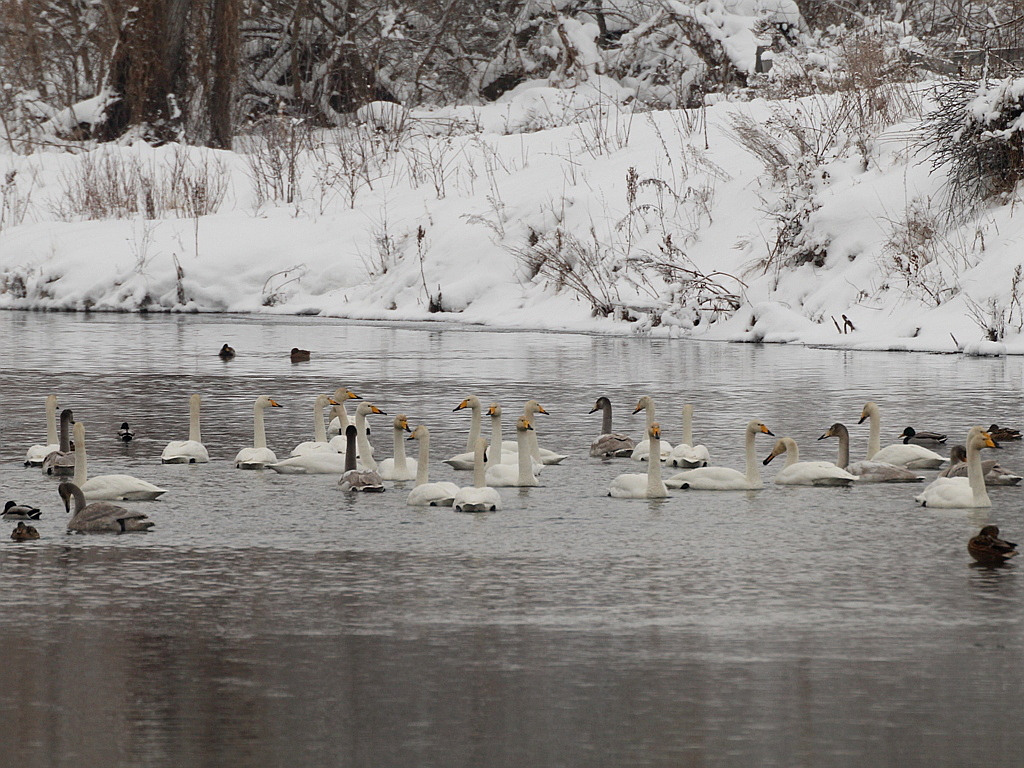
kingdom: Animalia
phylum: Chordata
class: Aves
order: Anseriformes
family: Anatidae
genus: Cygnus
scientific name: Cygnus cygnus
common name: Whooper swan
